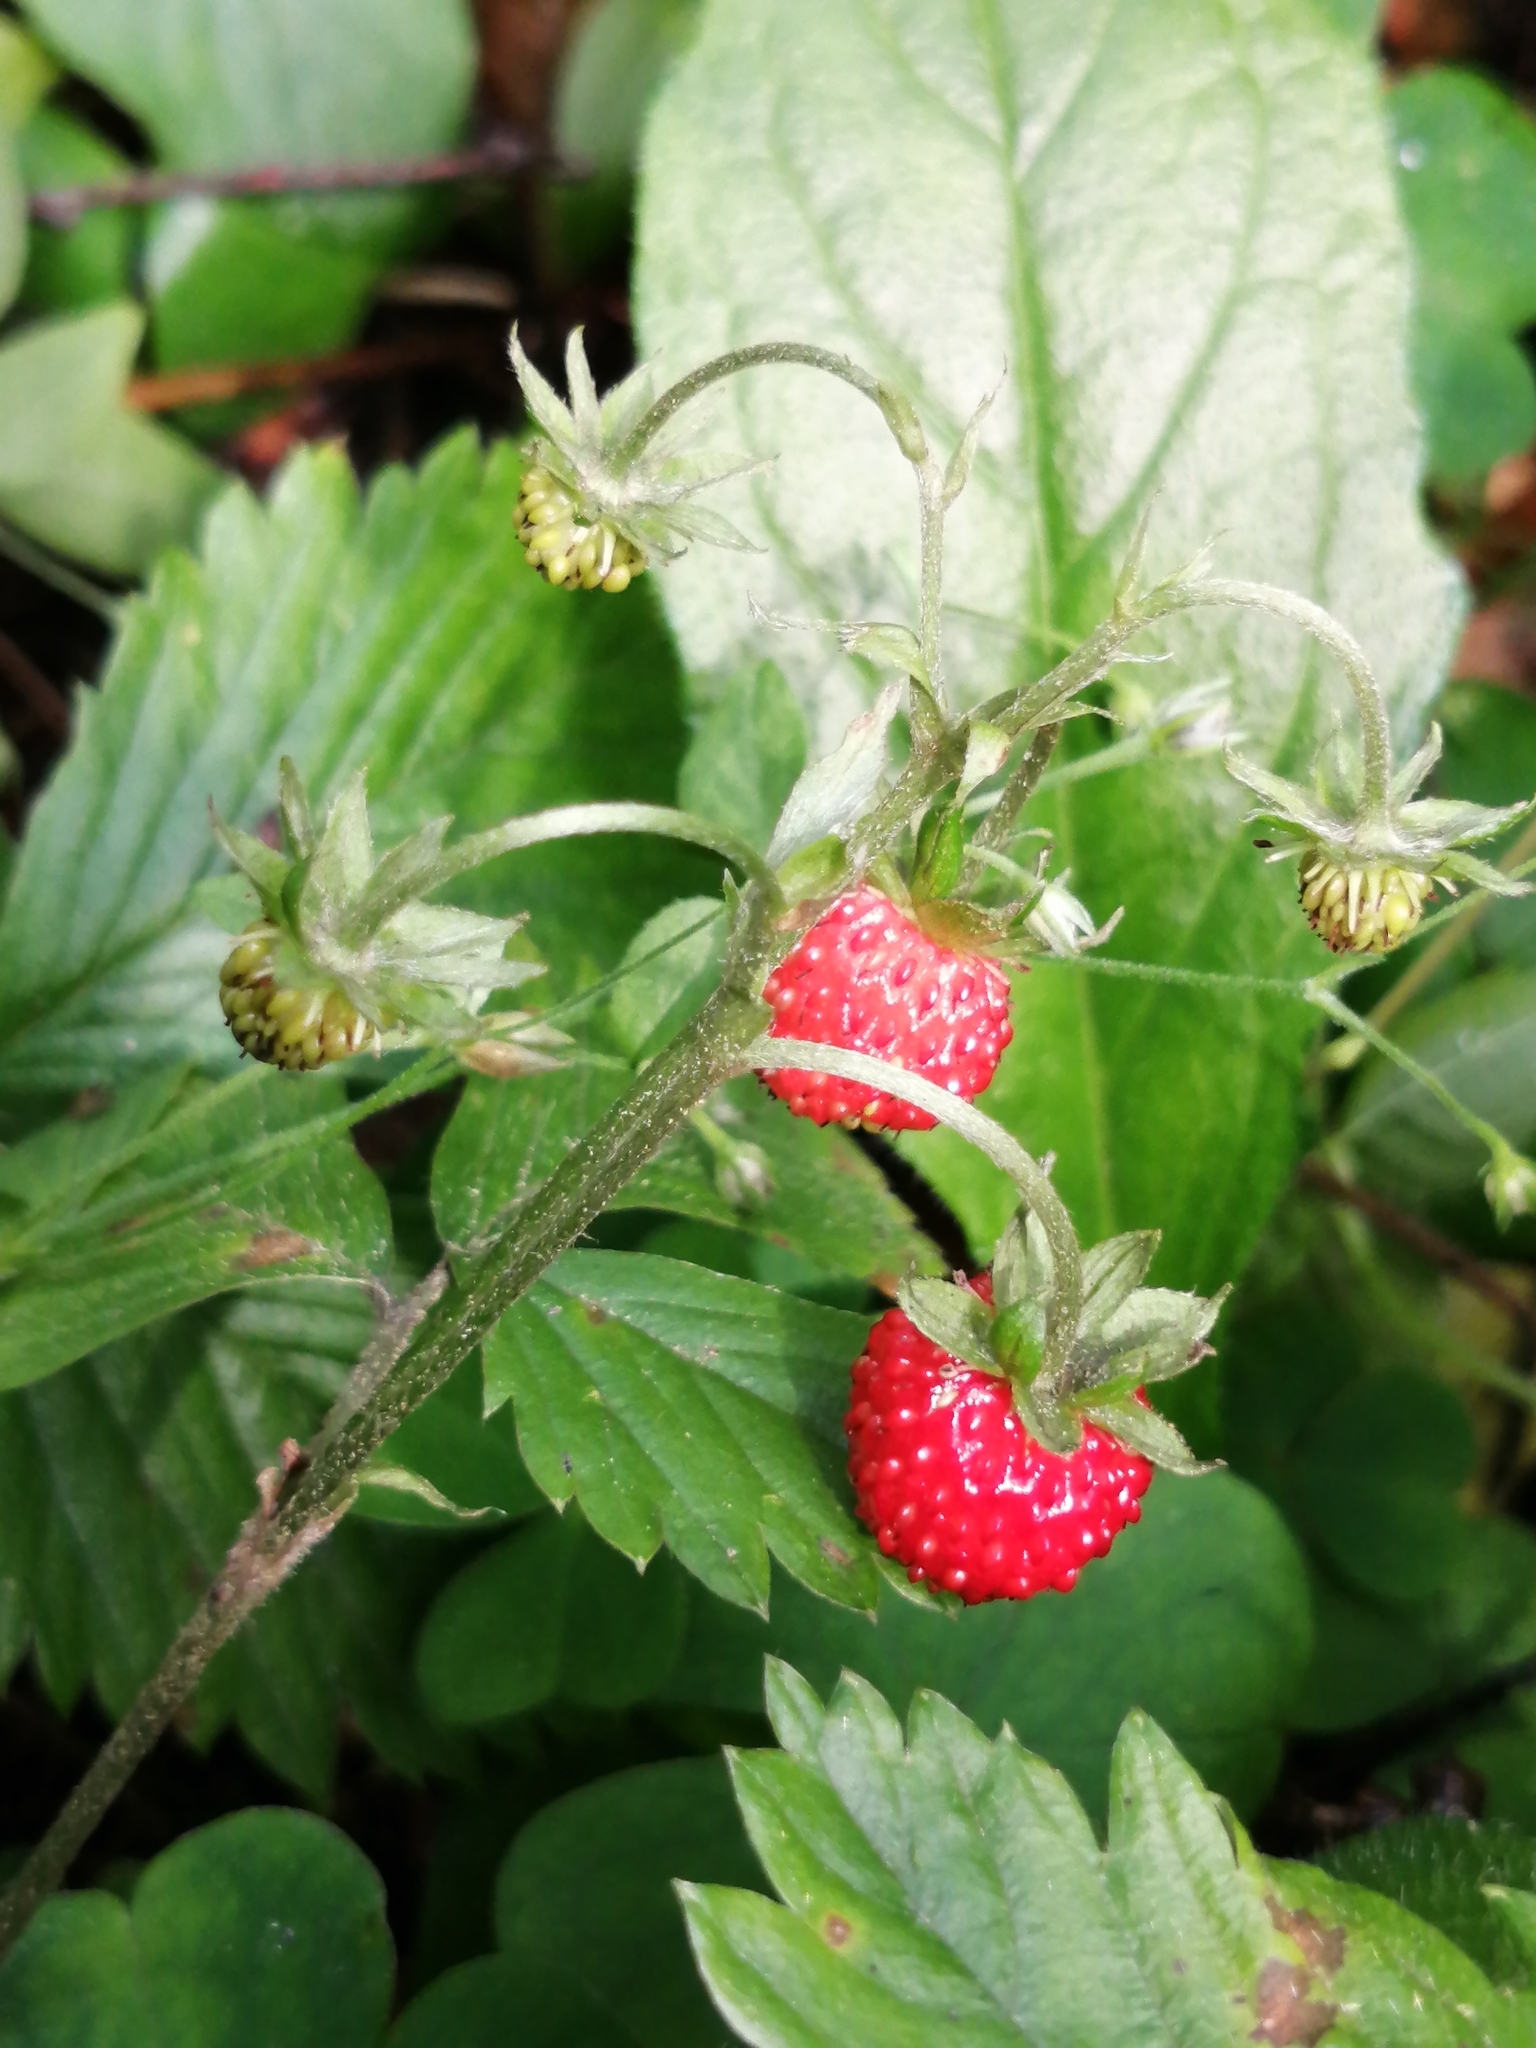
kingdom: Plantae
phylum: Tracheophyta
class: Magnoliopsida
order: Rosales
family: Rosaceae
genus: Fragaria
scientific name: Fragaria vesca
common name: Wild strawberry
